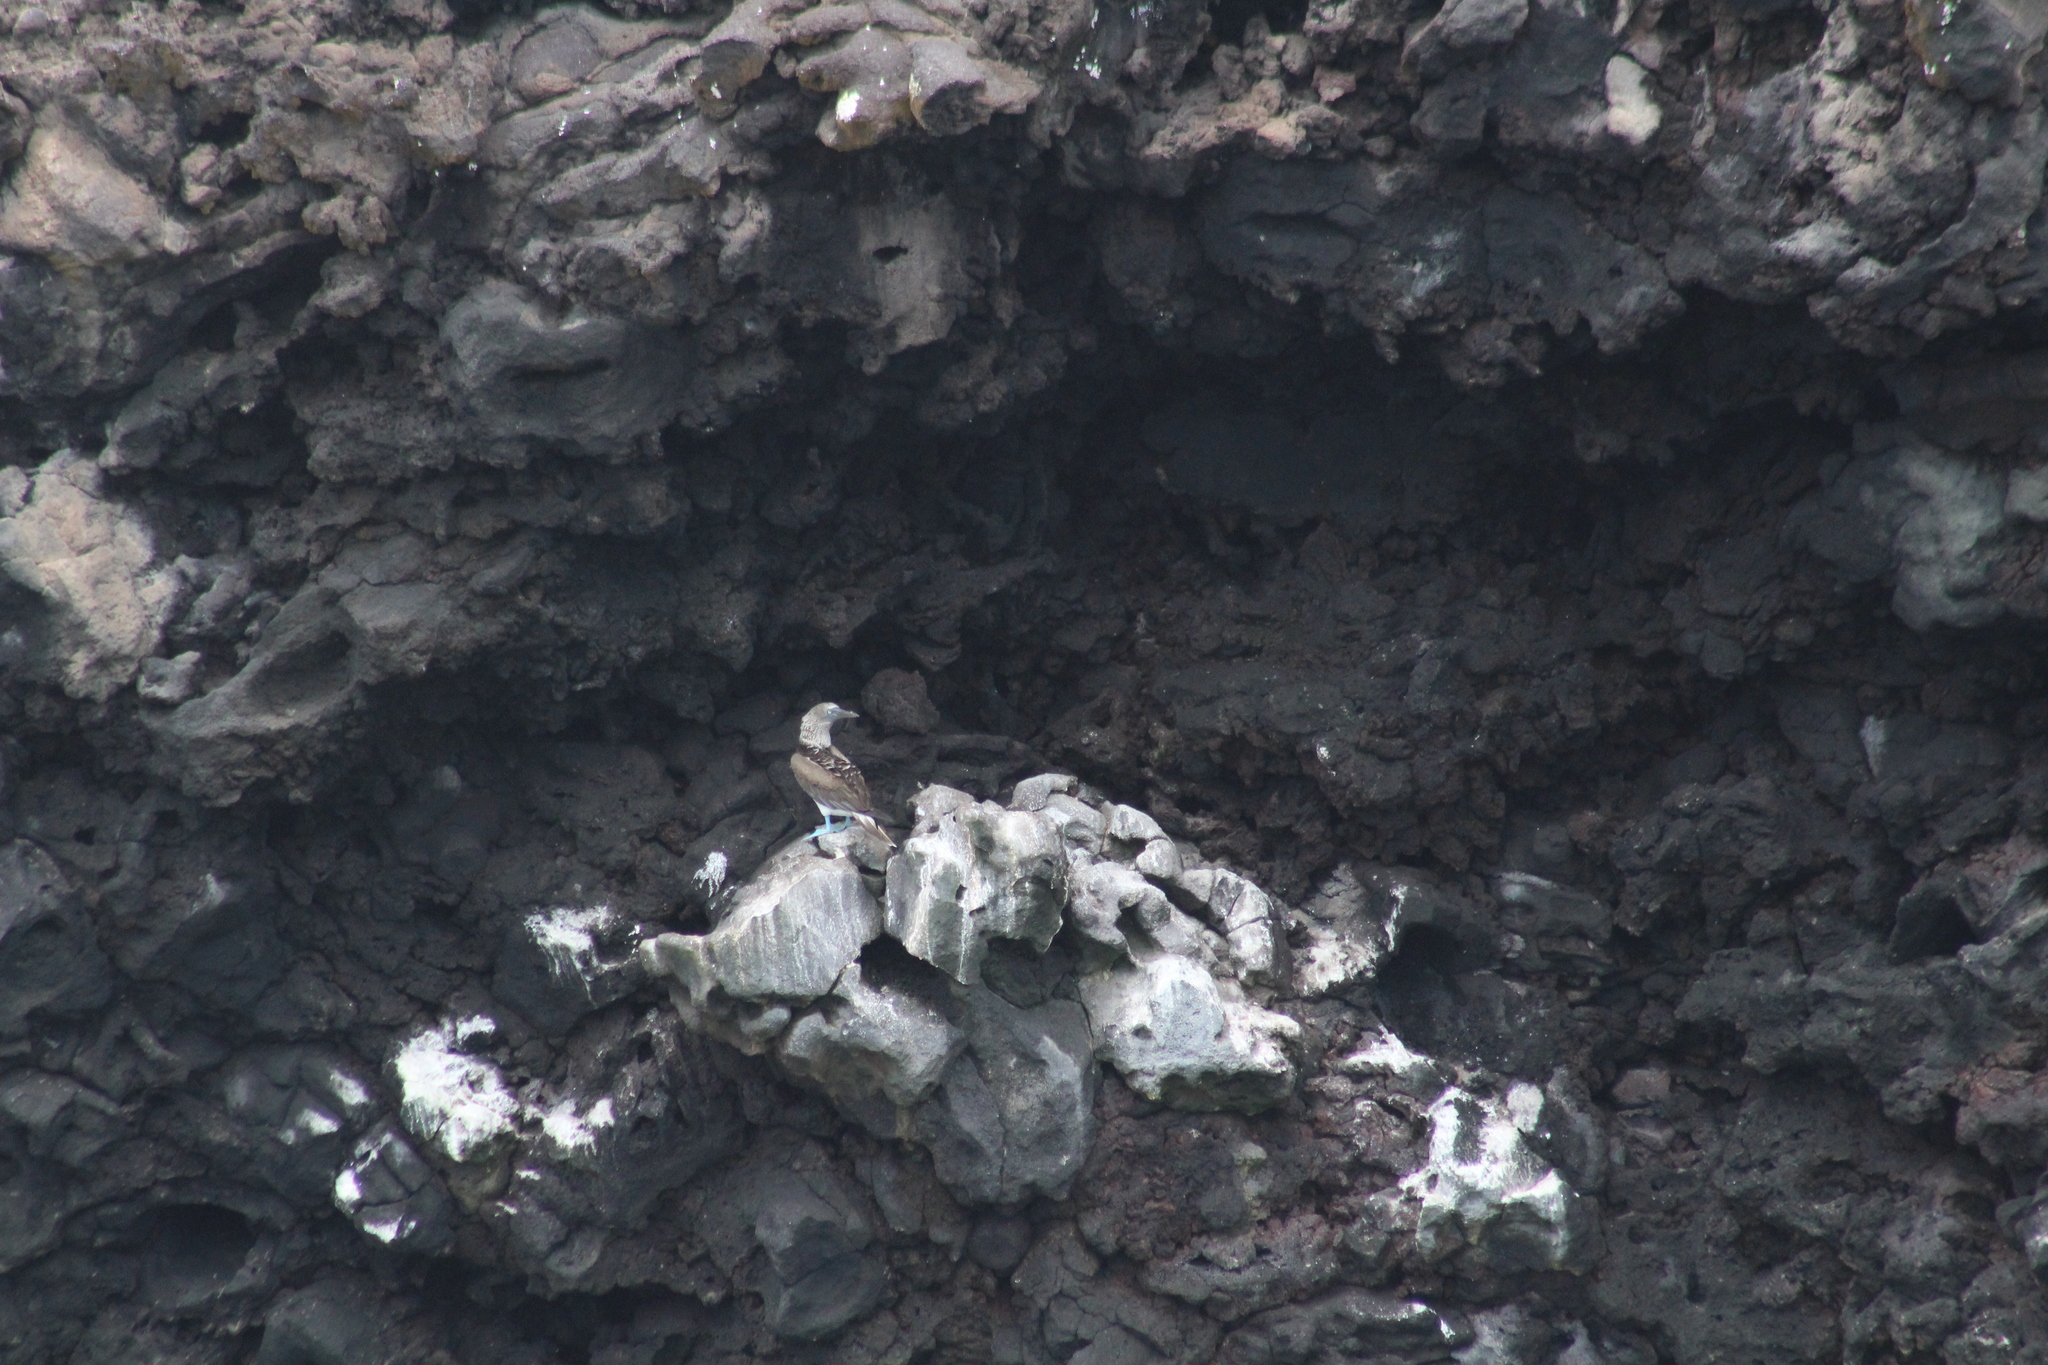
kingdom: Animalia
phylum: Chordata
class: Aves
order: Suliformes
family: Sulidae
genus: Sula
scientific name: Sula nebouxii
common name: Blue-footed booby
